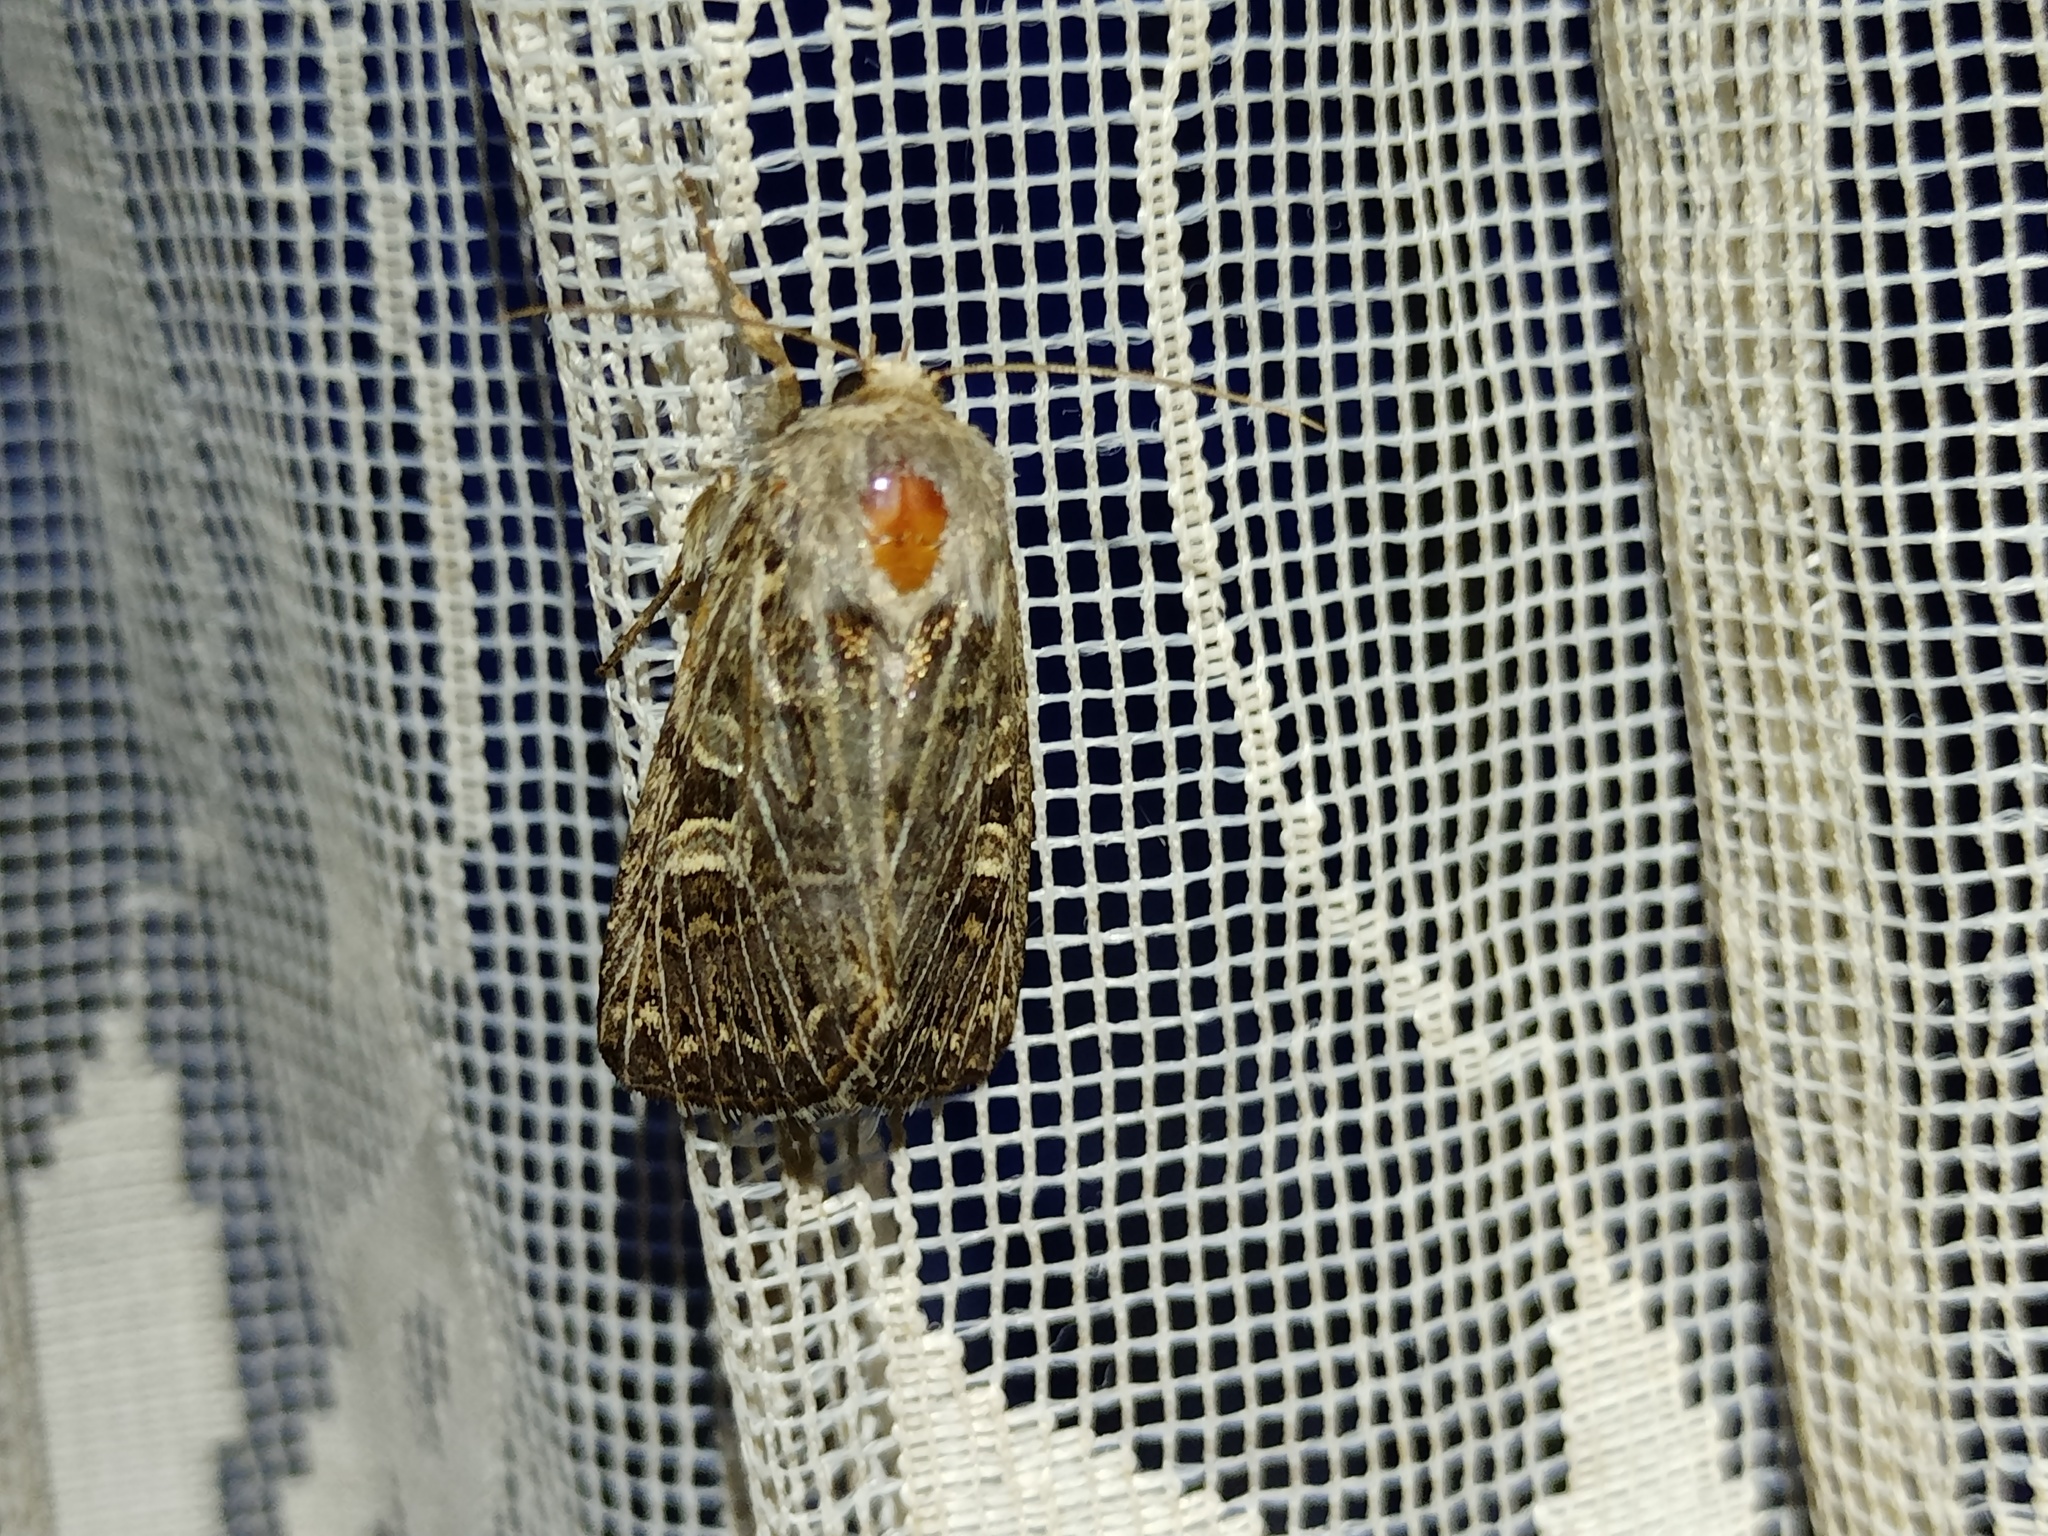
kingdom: Animalia
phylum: Arthropoda
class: Insecta
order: Lepidoptera
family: Noctuidae
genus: Tholera
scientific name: Tholera decimalis
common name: Feathered gothic
